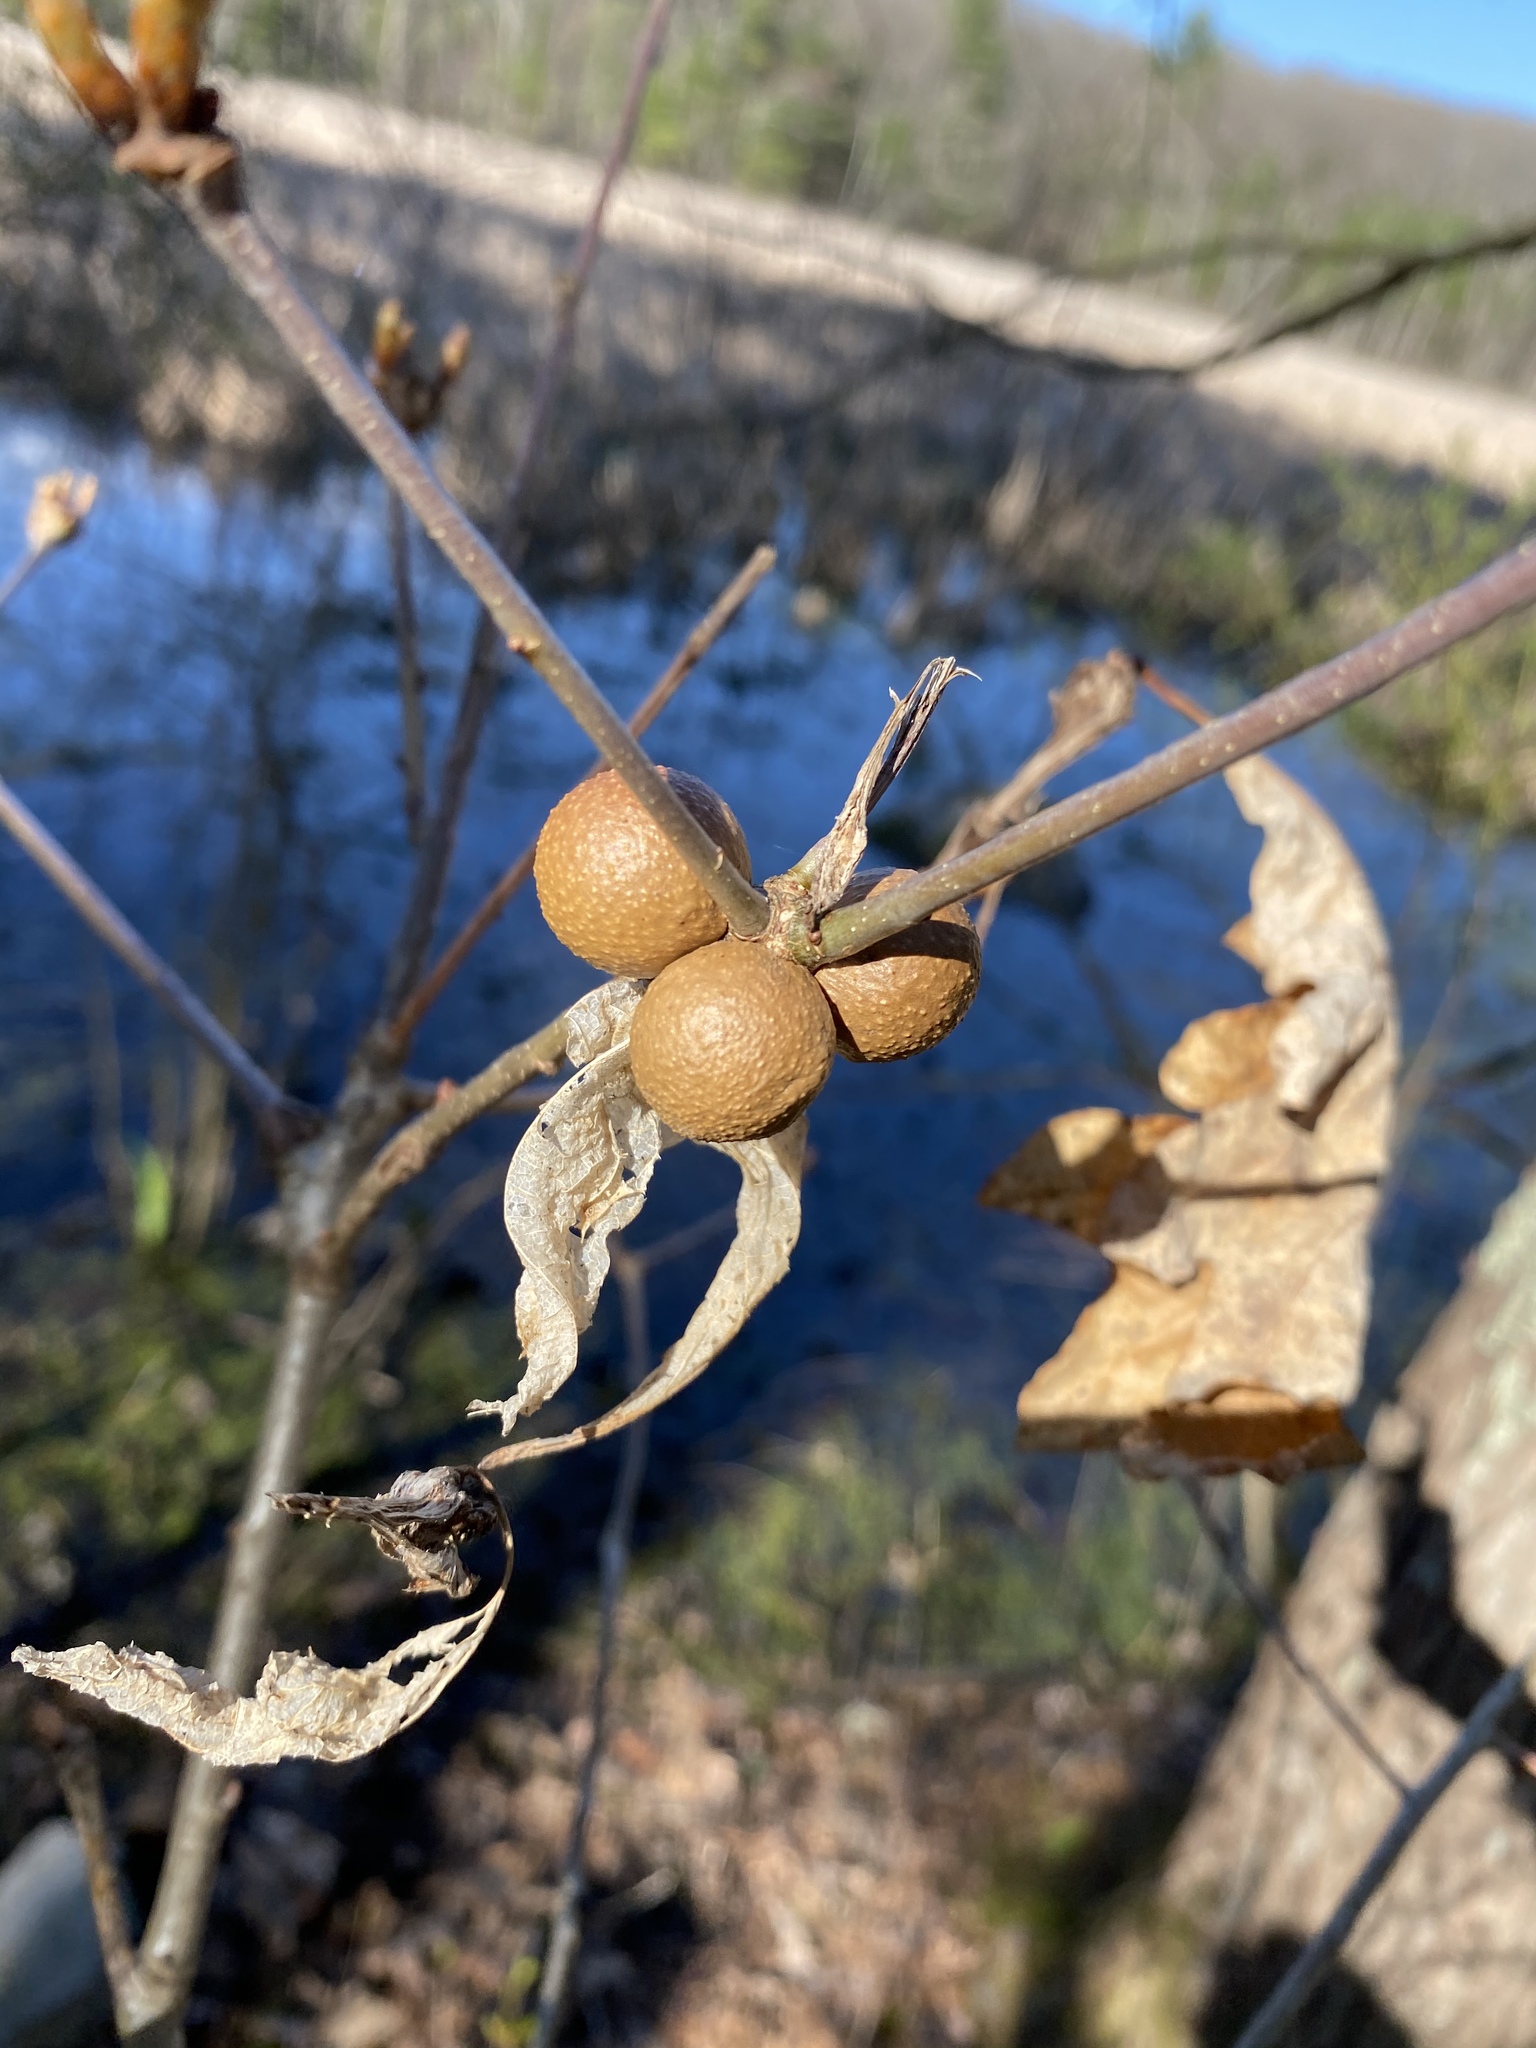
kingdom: Animalia
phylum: Arthropoda
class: Insecta
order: Hymenoptera
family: Cynipidae
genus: Disholcaspis
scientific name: Disholcaspis quercusglobulus
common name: Round bullet gall wasp
